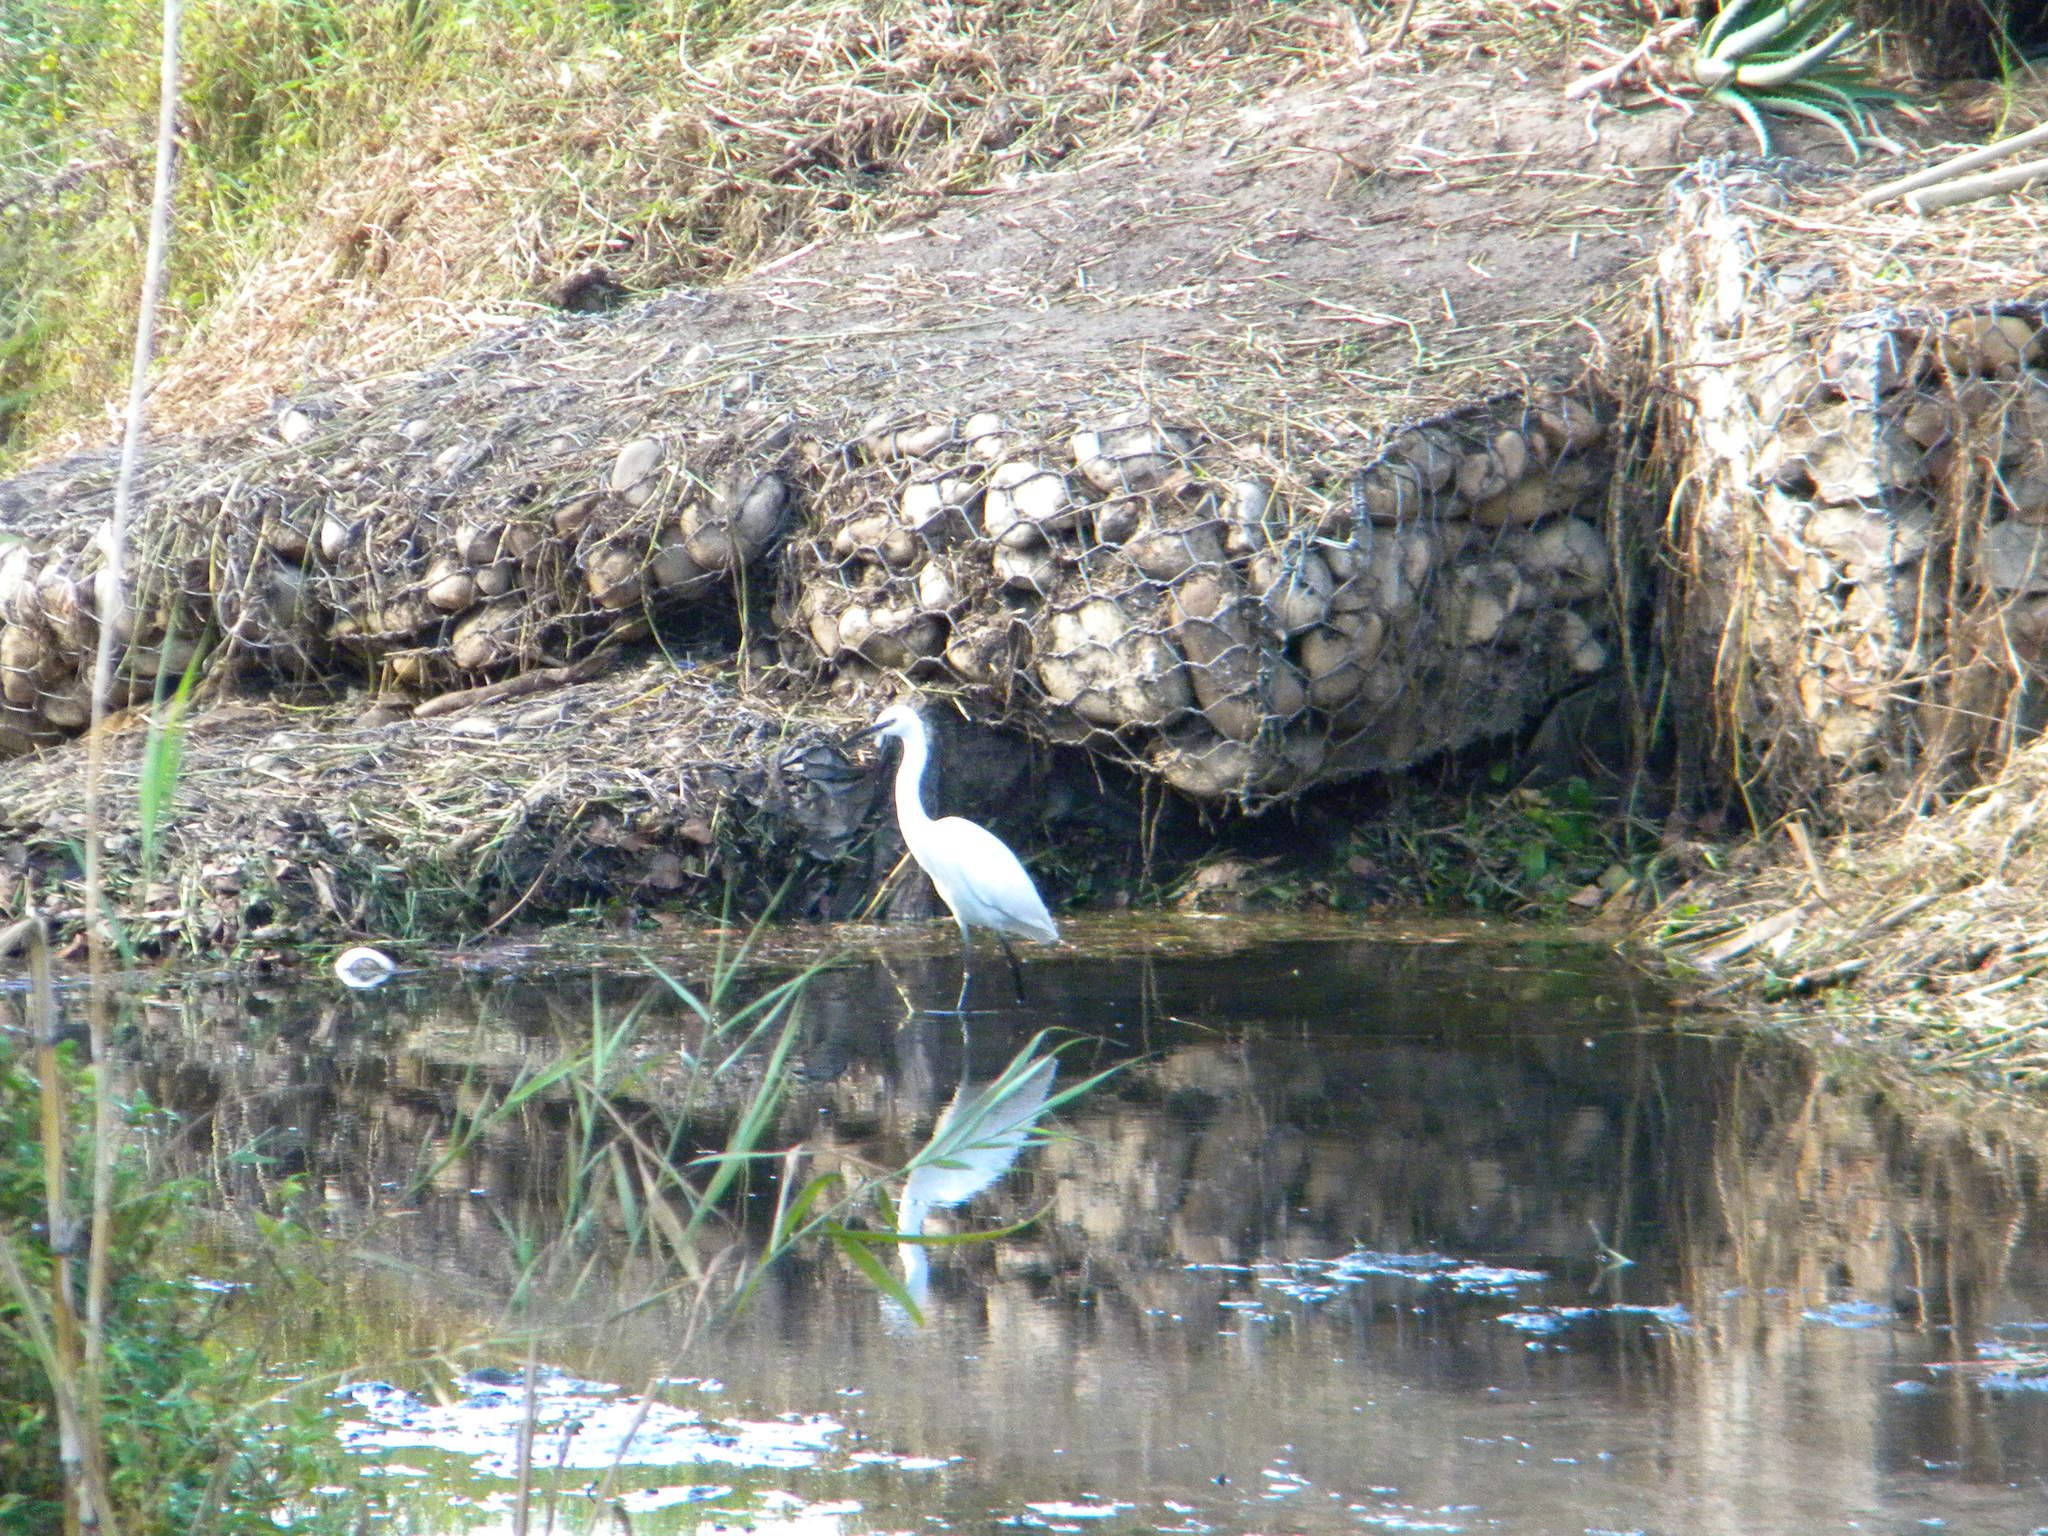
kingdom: Animalia
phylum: Chordata
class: Aves
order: Pelecaniformes
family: Ardeidae
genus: Egretta
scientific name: Egretta garzetta
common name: Little egret
